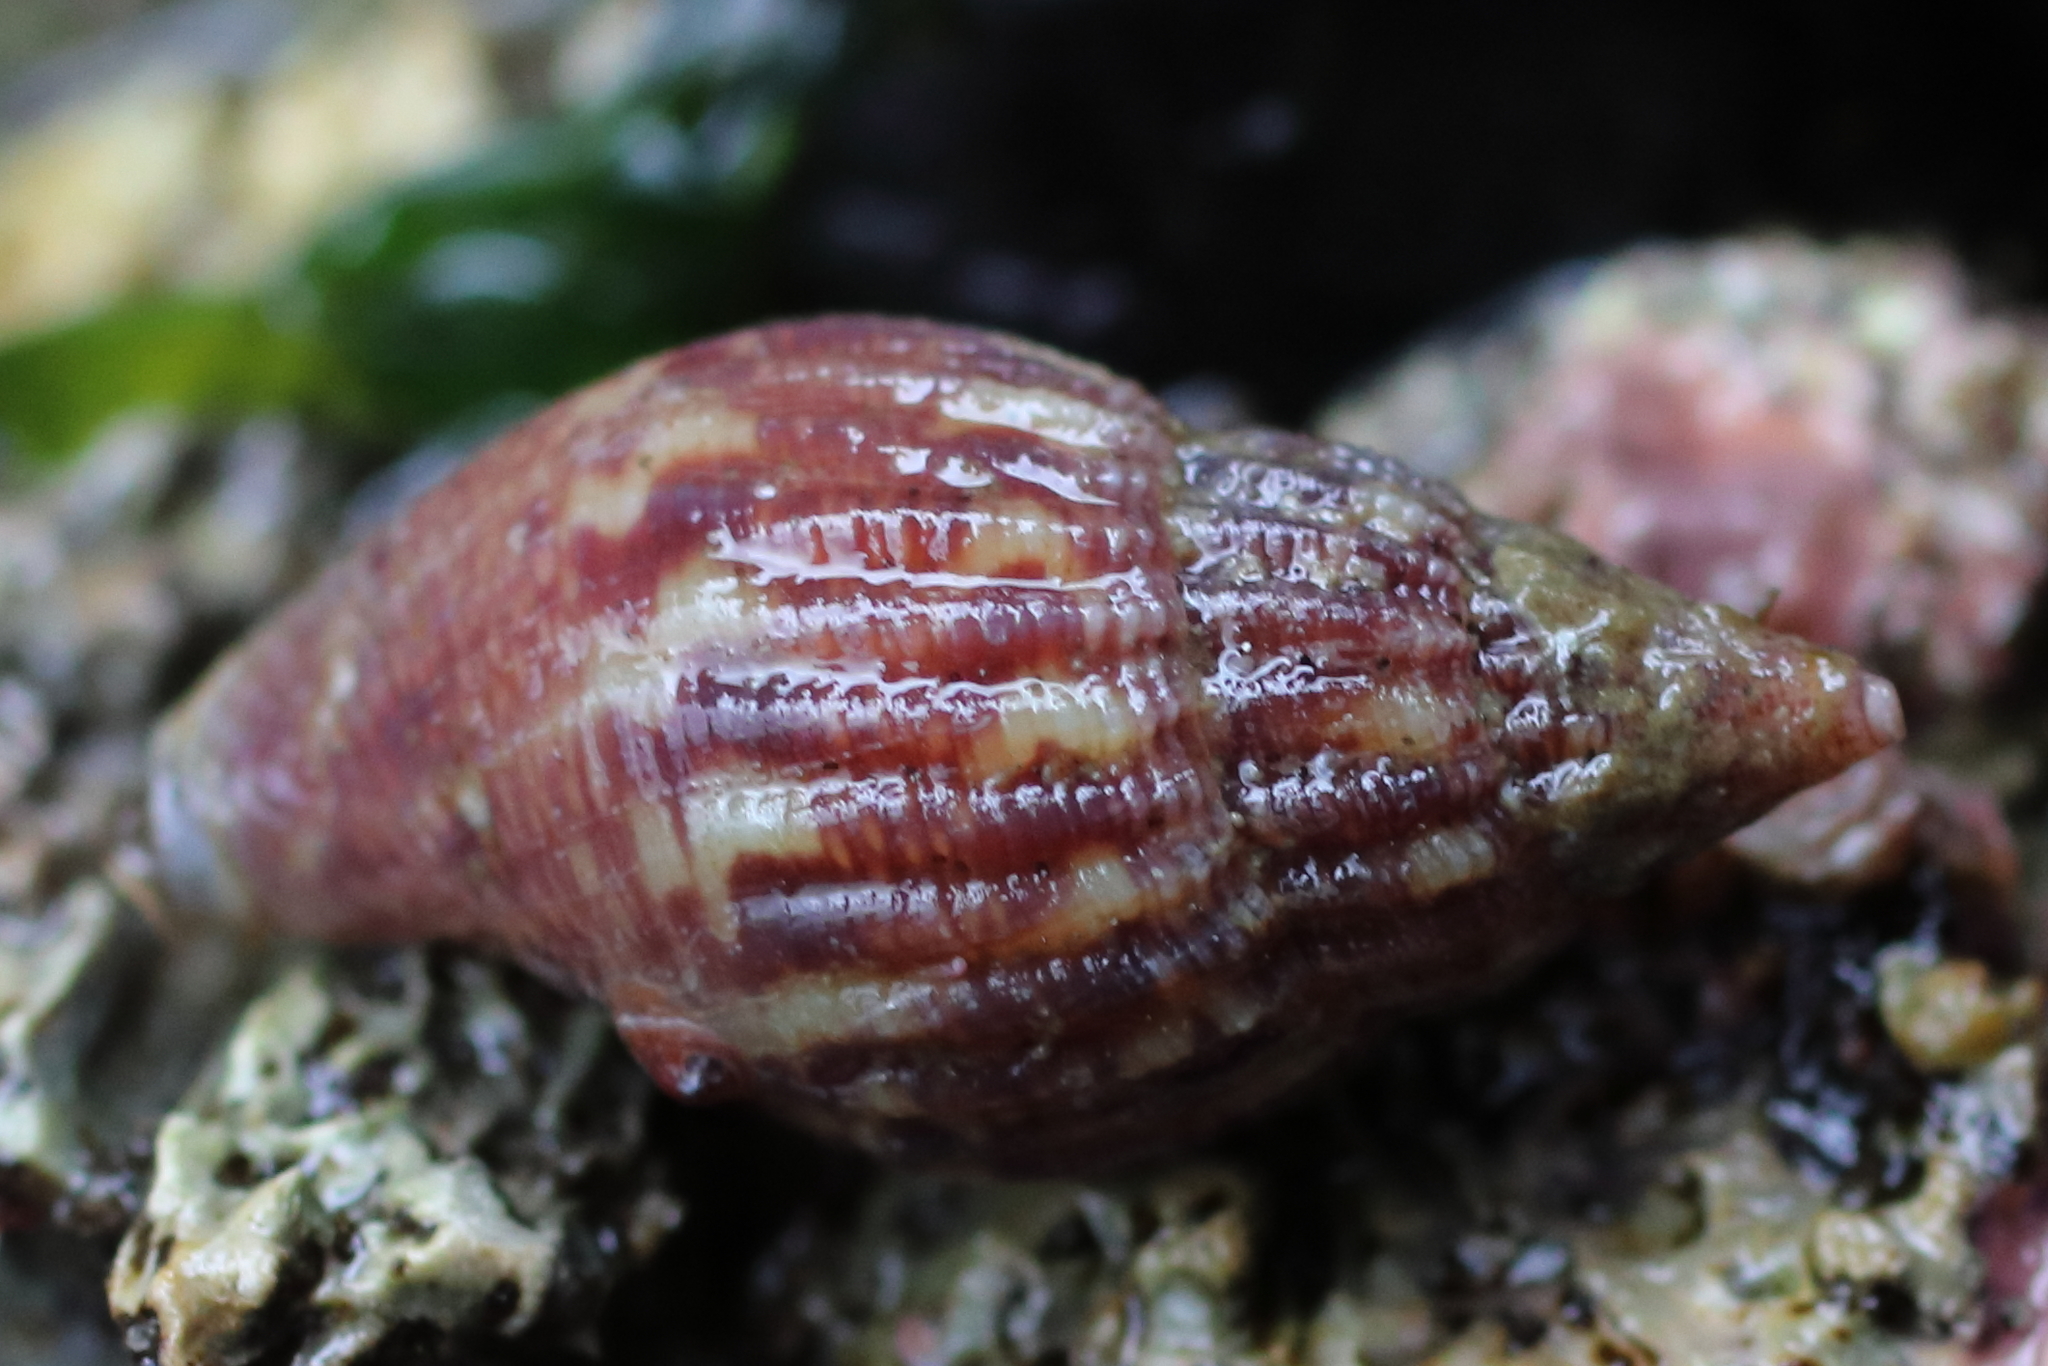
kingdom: Animalia
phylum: Mollusca
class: Gastropoda
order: Neogastropoda
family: Columbellidae
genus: Amphissa
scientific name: Amphissa columbiana
